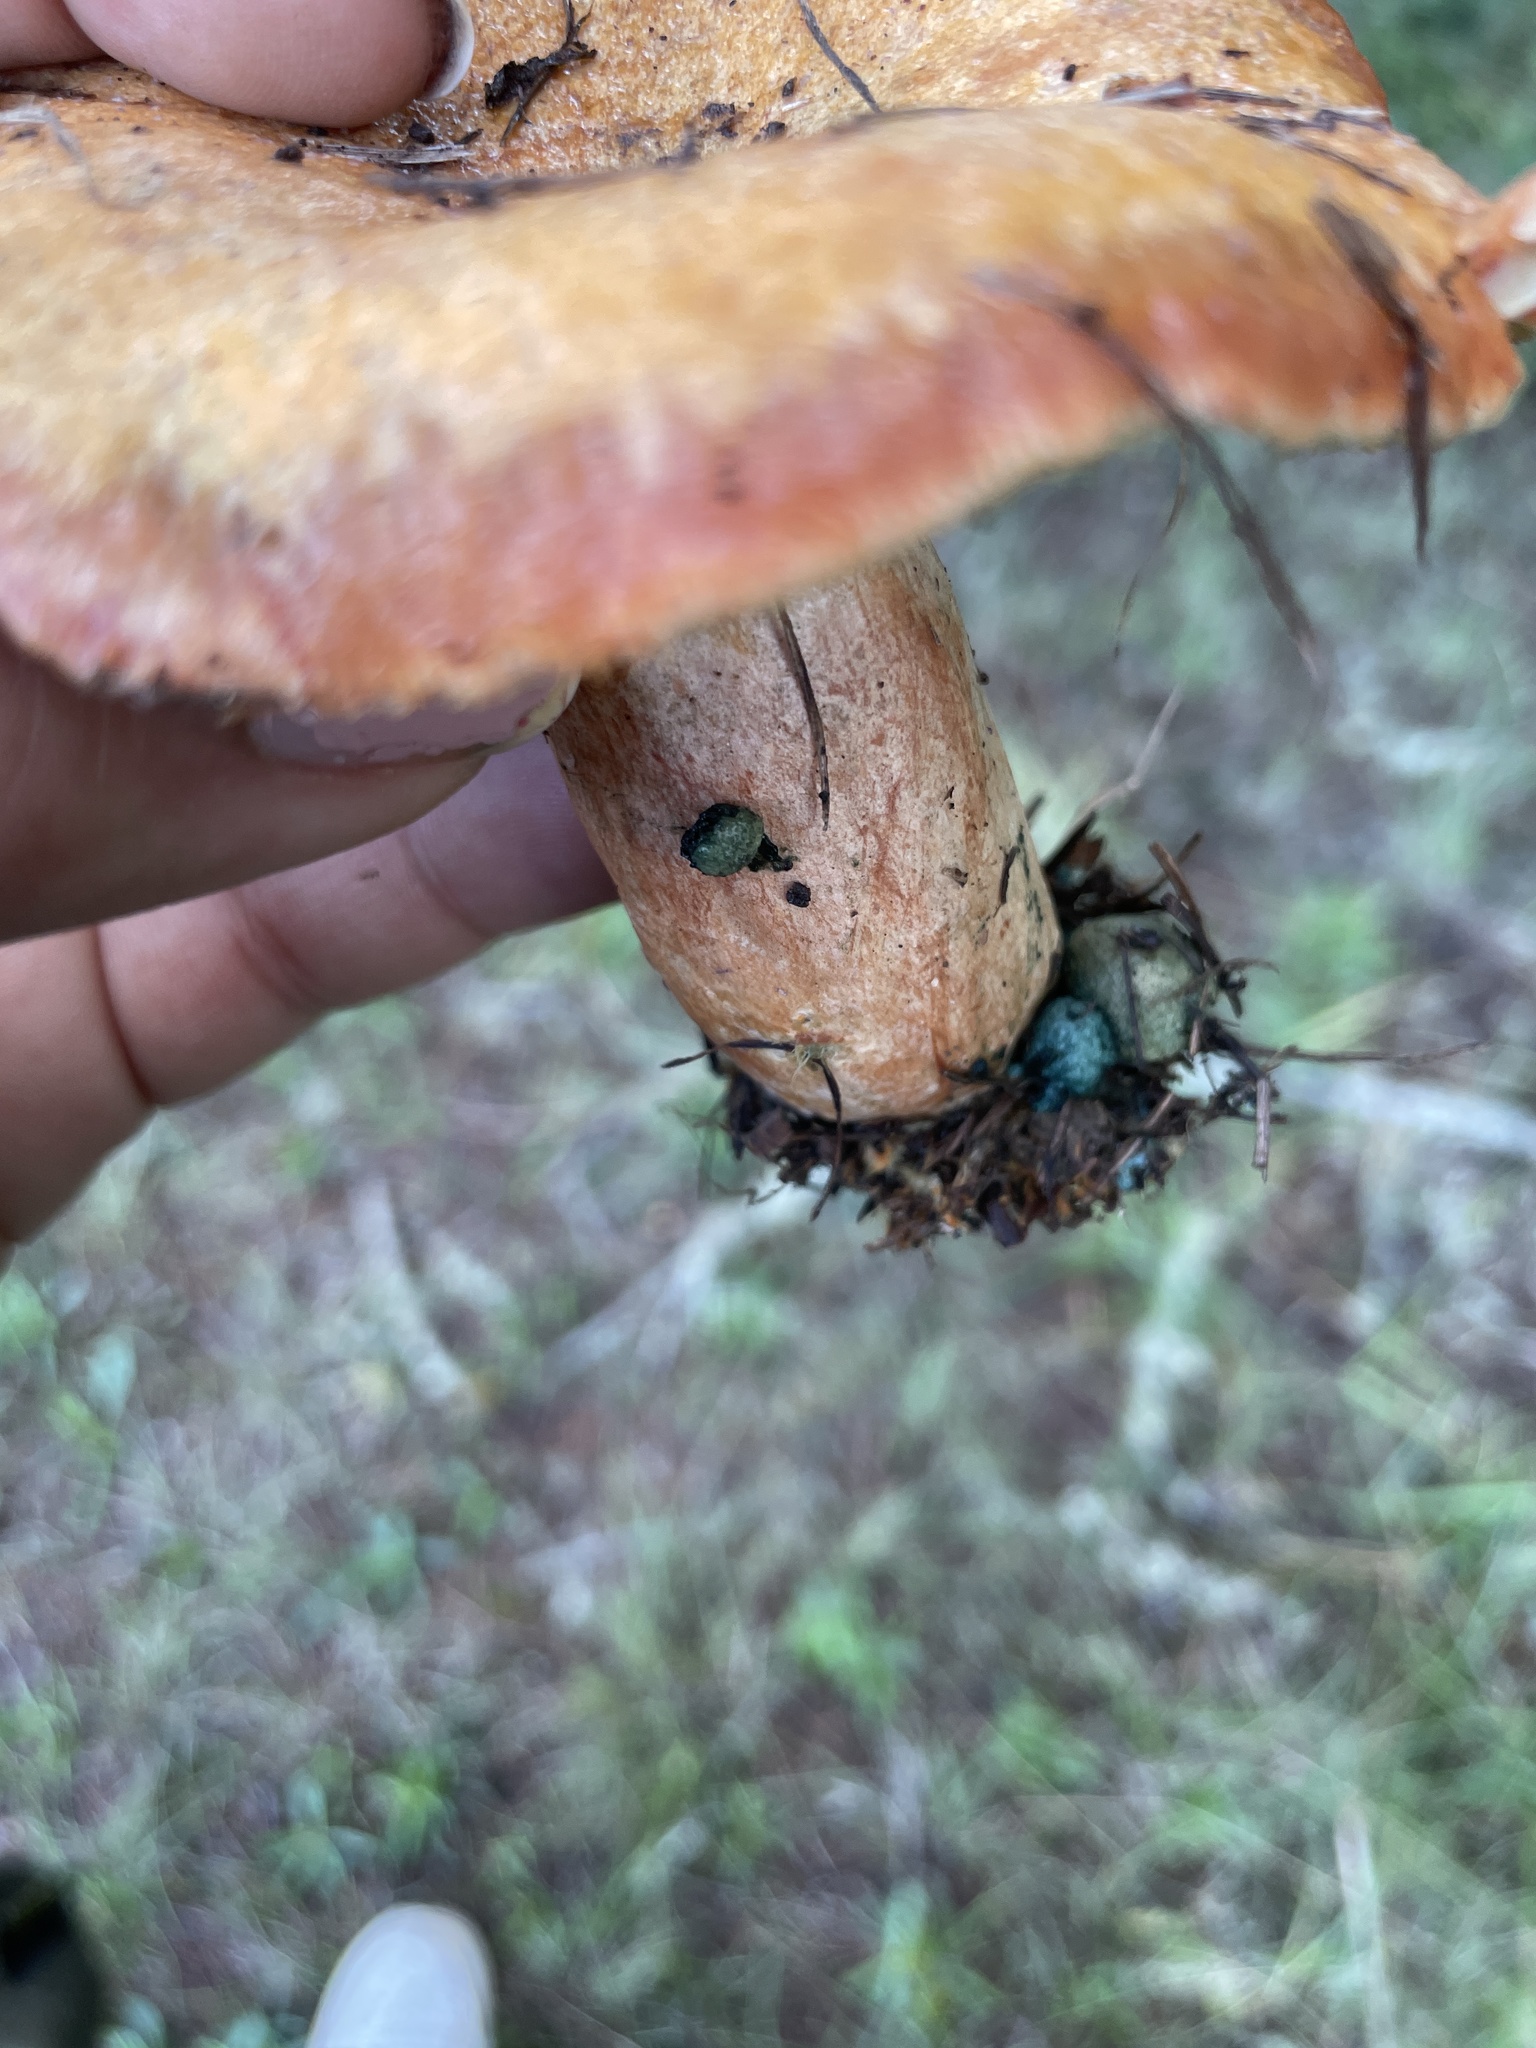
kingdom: Fungi
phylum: Basidiomycota
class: Agaricomycetes
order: Russulales
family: Russulaceae
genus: Lactarius
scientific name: Lactarius rubrilacteus
